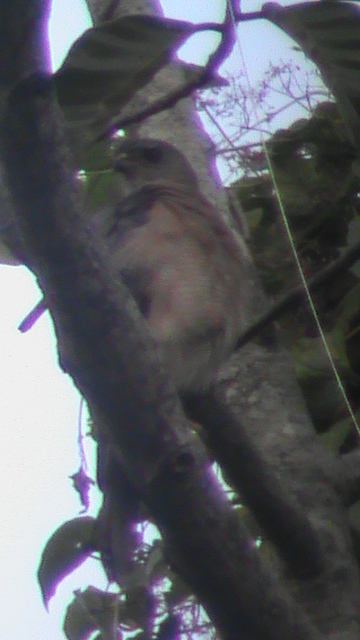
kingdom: Animalia
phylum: Chordata
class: Aves
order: Accipitriformes
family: Accipitridae
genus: Accipiter
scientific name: Accipiter badius
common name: Shikra
